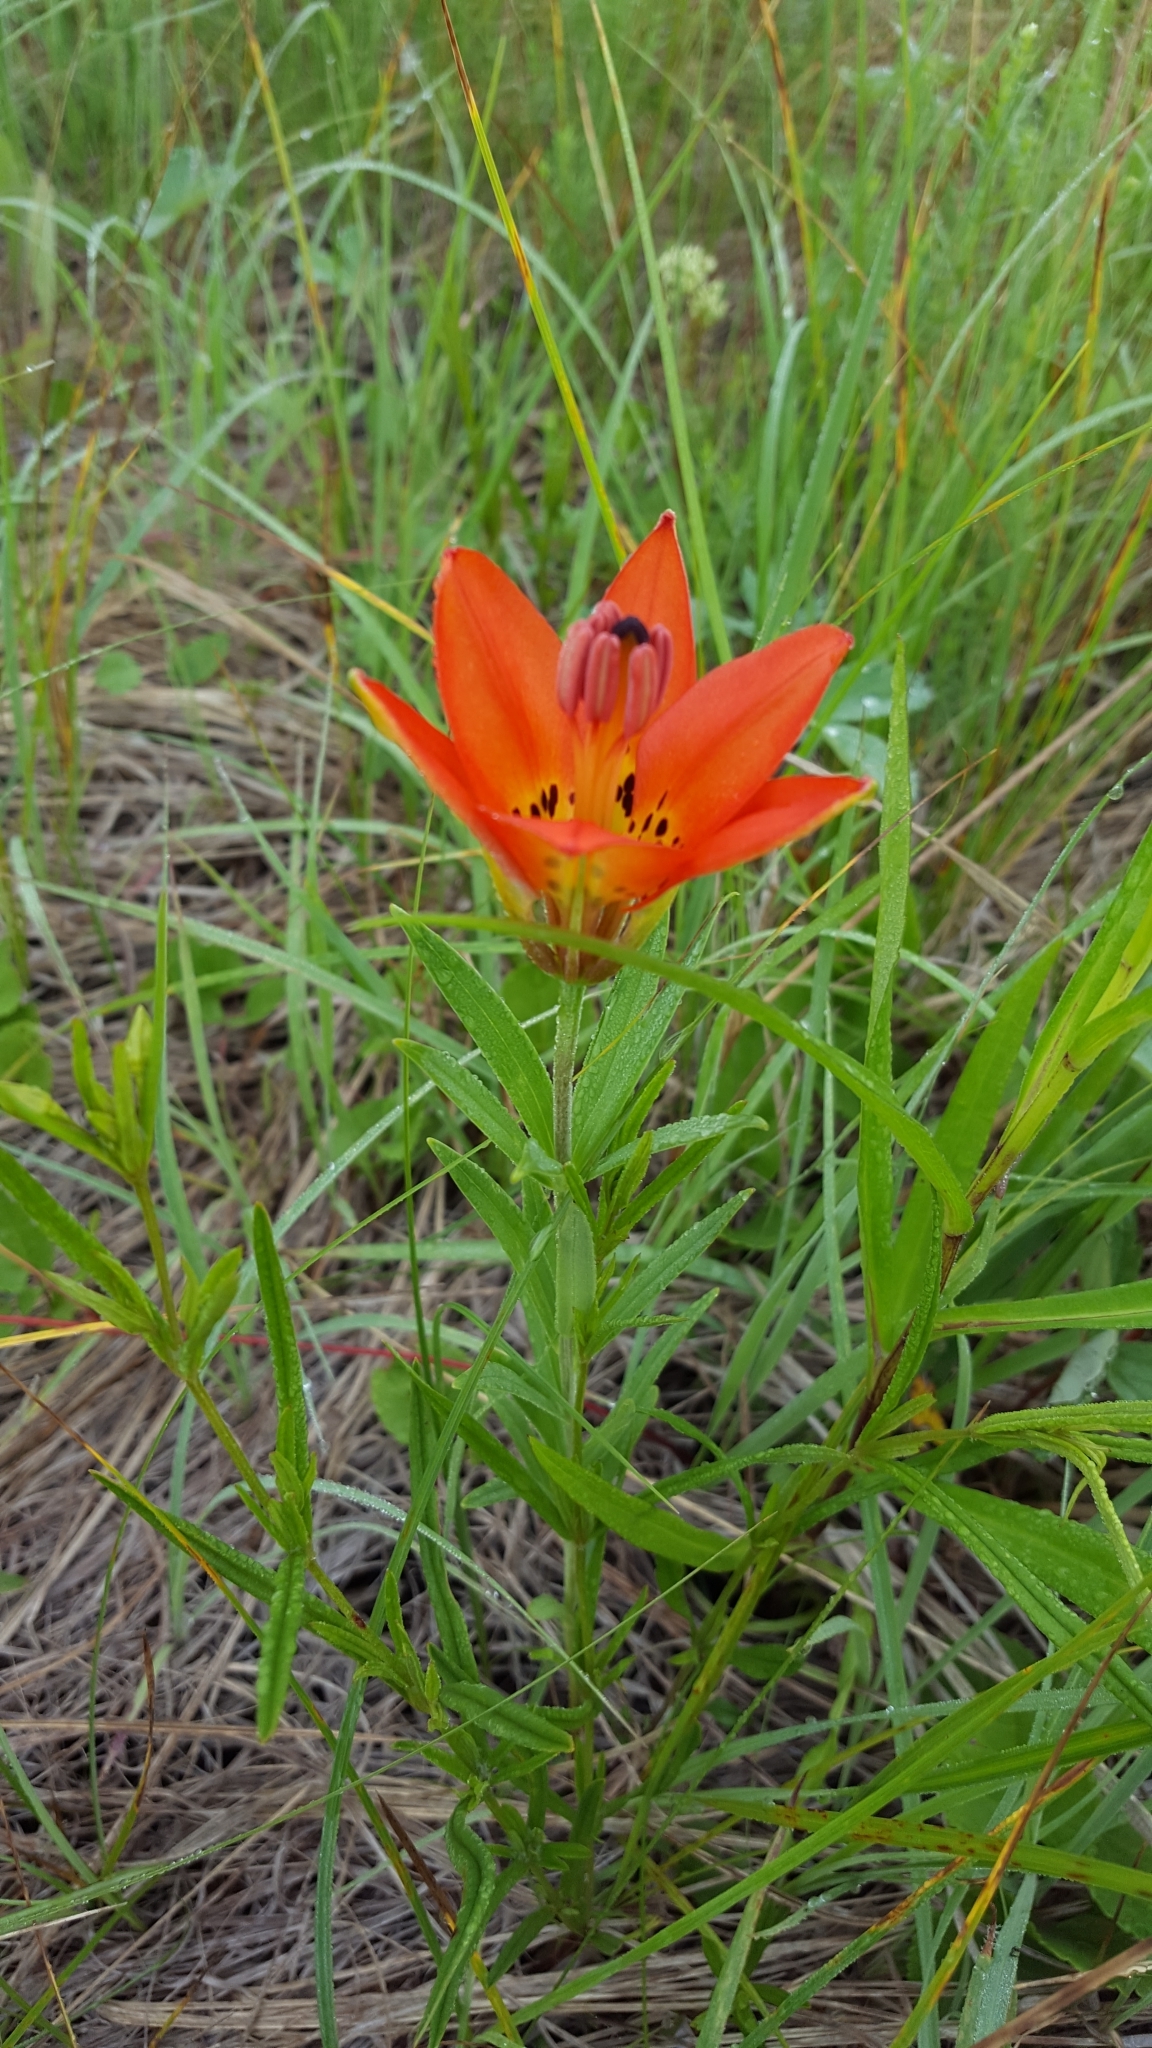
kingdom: Plantae
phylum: Tracheophyta
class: Liliopsida
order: Liliales
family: Liliaceae
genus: Lilium
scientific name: Lilium philadelphicum
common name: Red lily
